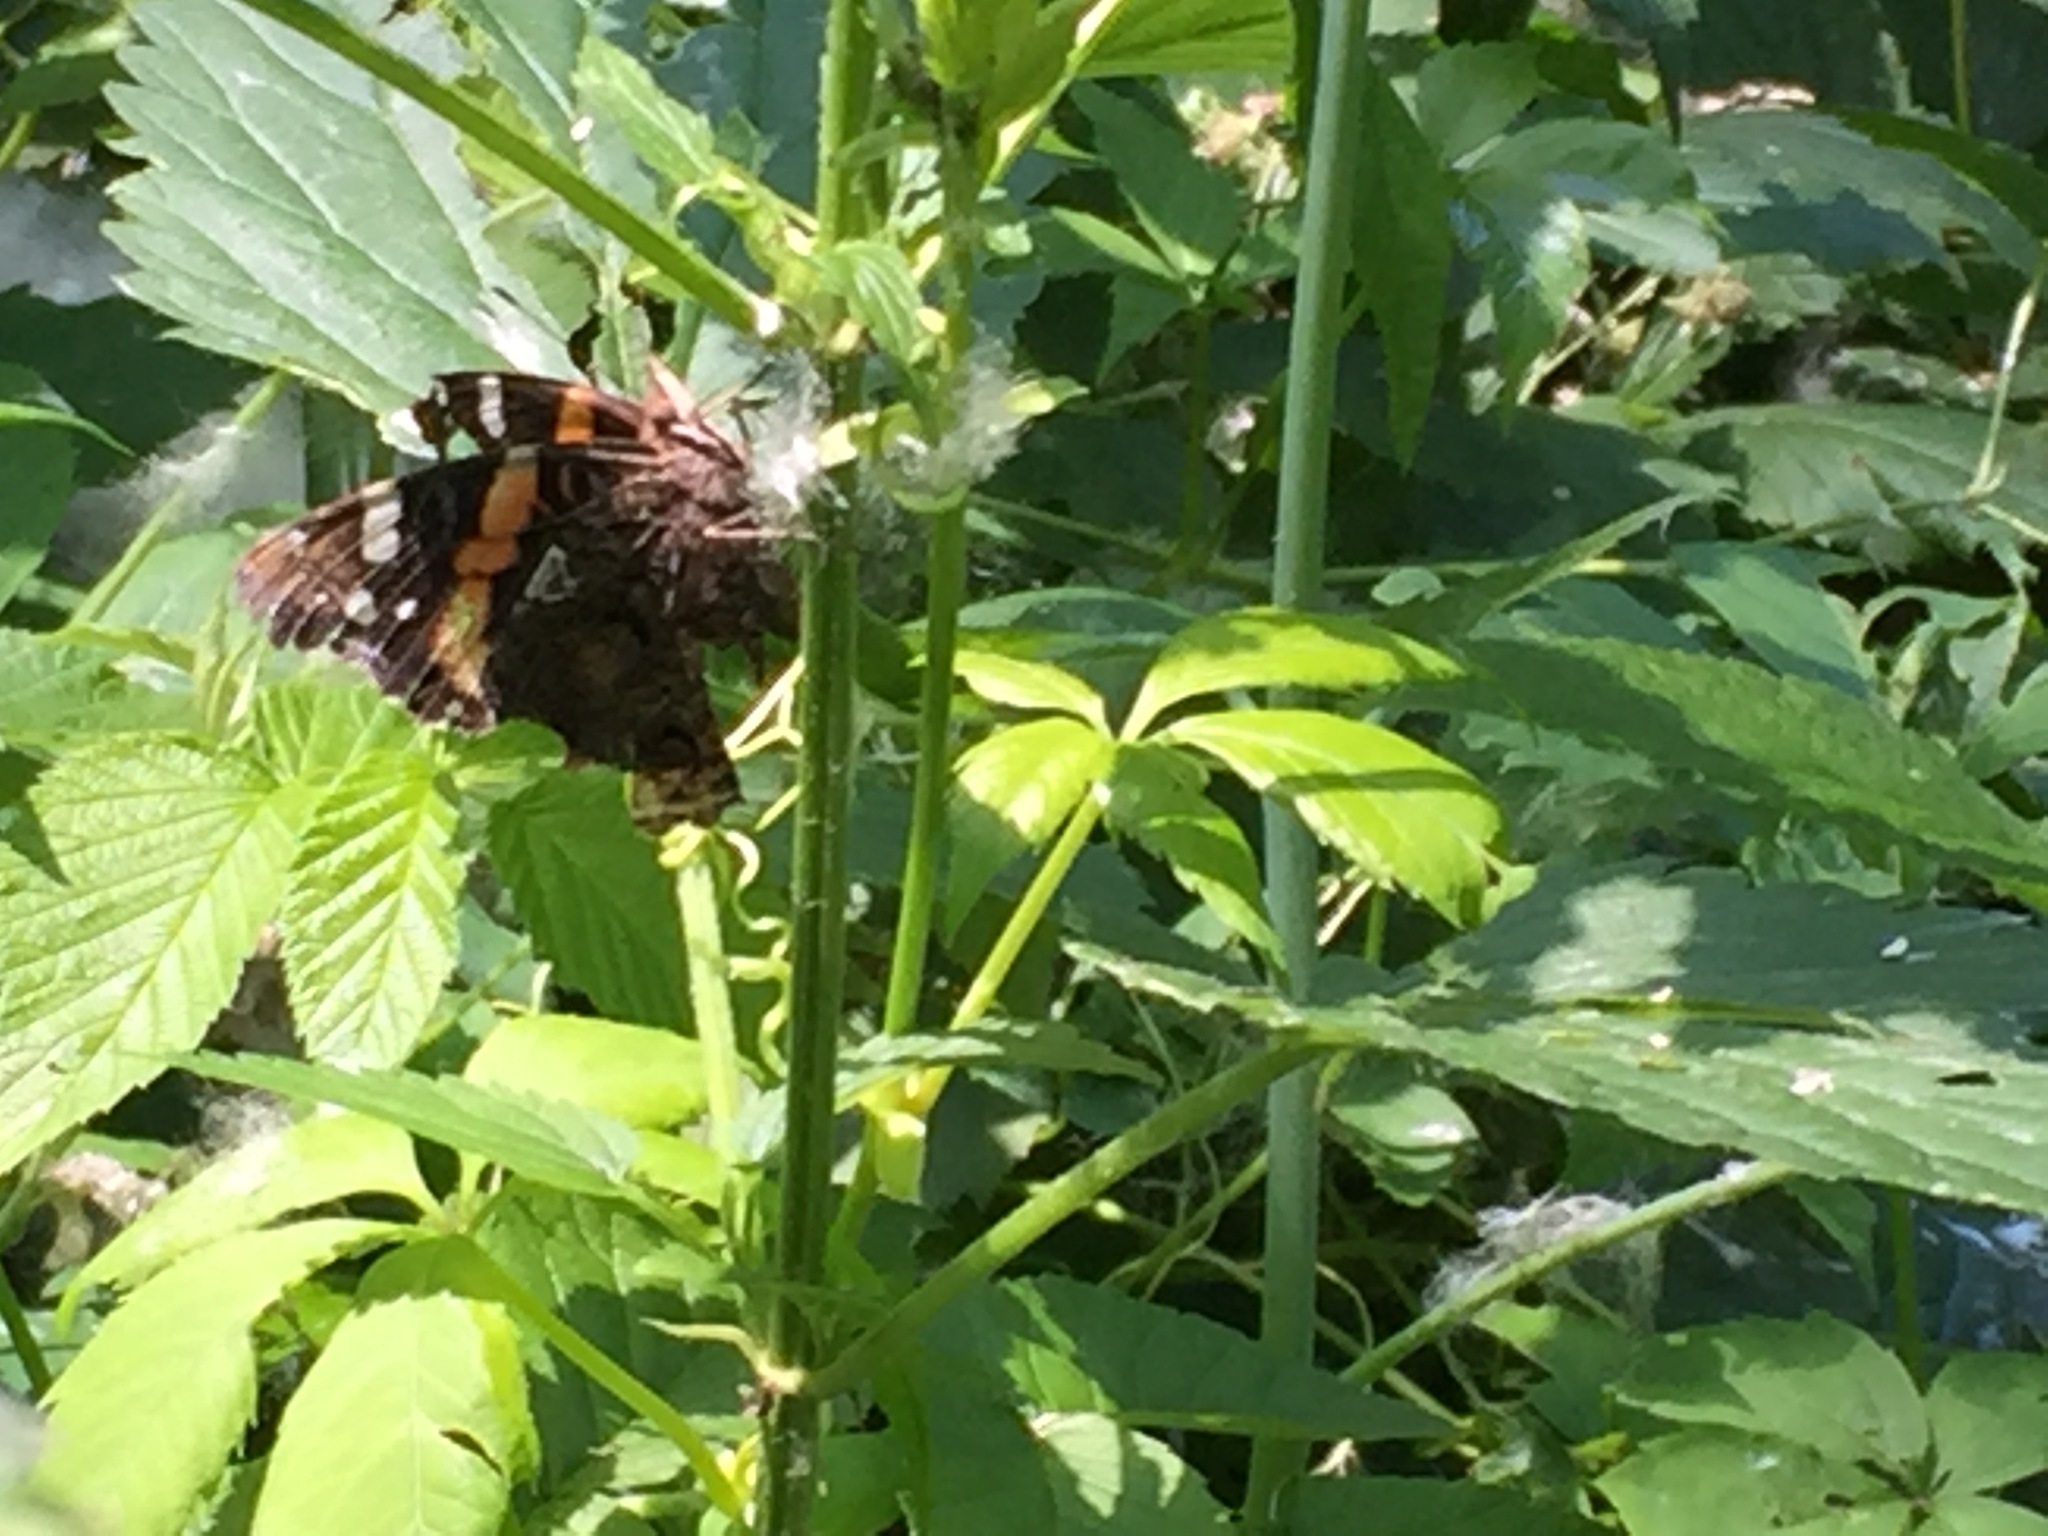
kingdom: Animalia
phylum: Arthropoda
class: Insecta
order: Lepidoptera
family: Nymphalidae
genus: Vanessa
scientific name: Vanessa atalanta
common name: Red admiral
